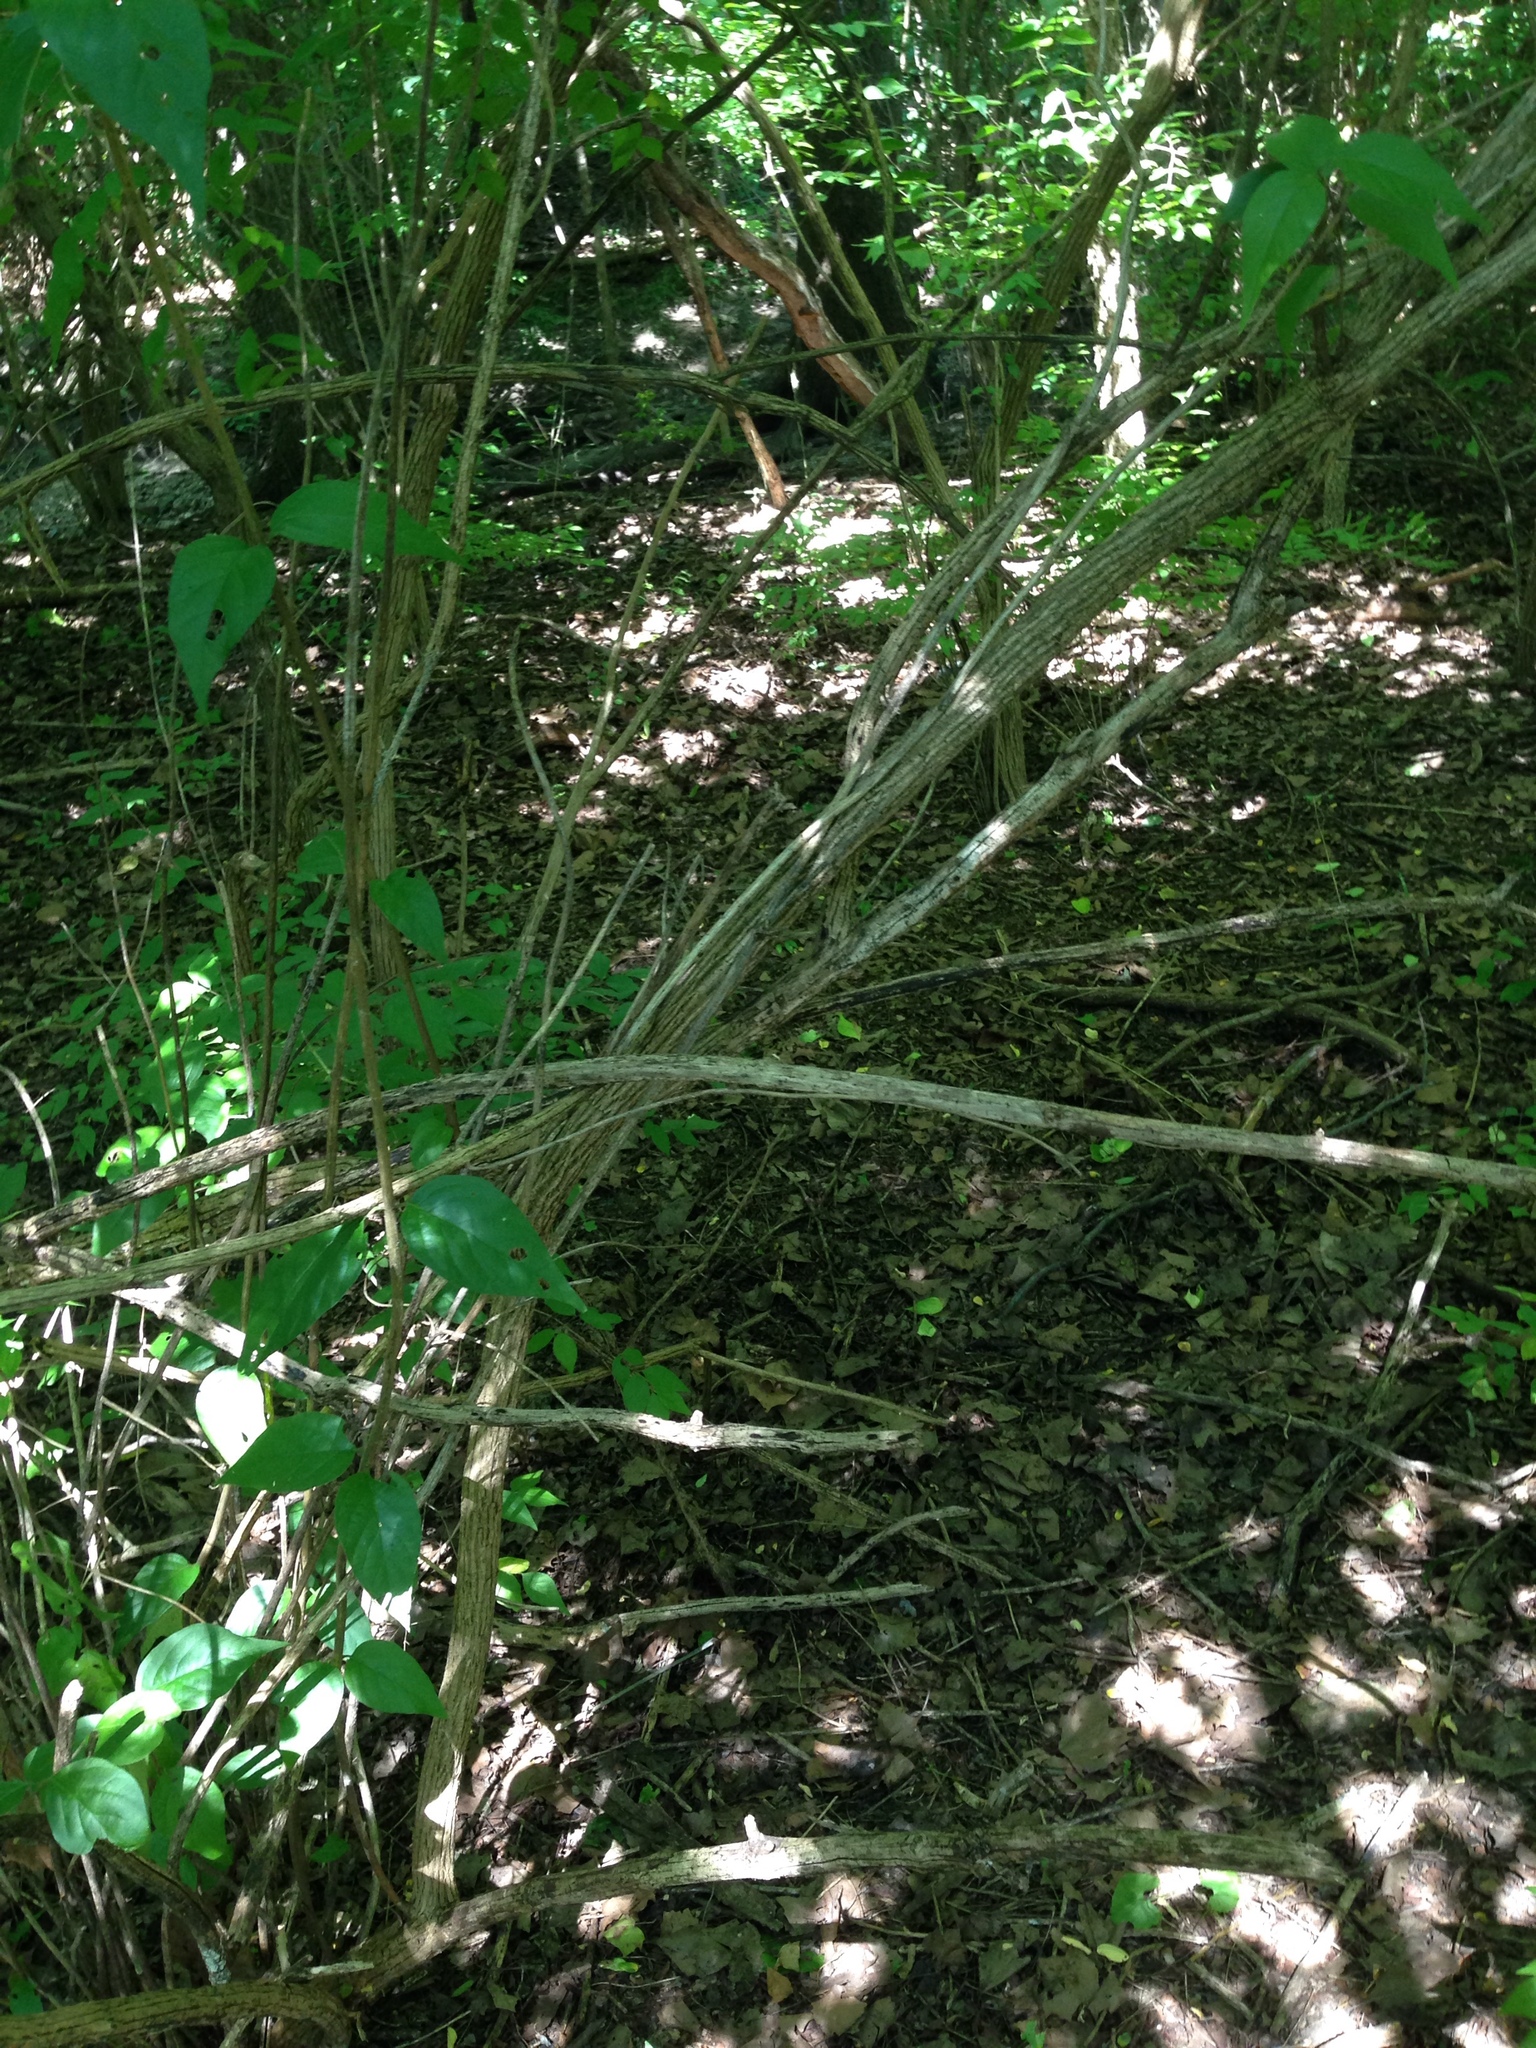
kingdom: Plantae
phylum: Tracheophyta
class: Magnoliopsida
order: Dipsacales
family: Caprifoliaceae
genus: Lonicera
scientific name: Lonicera maackii
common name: Amur honeysuckle
